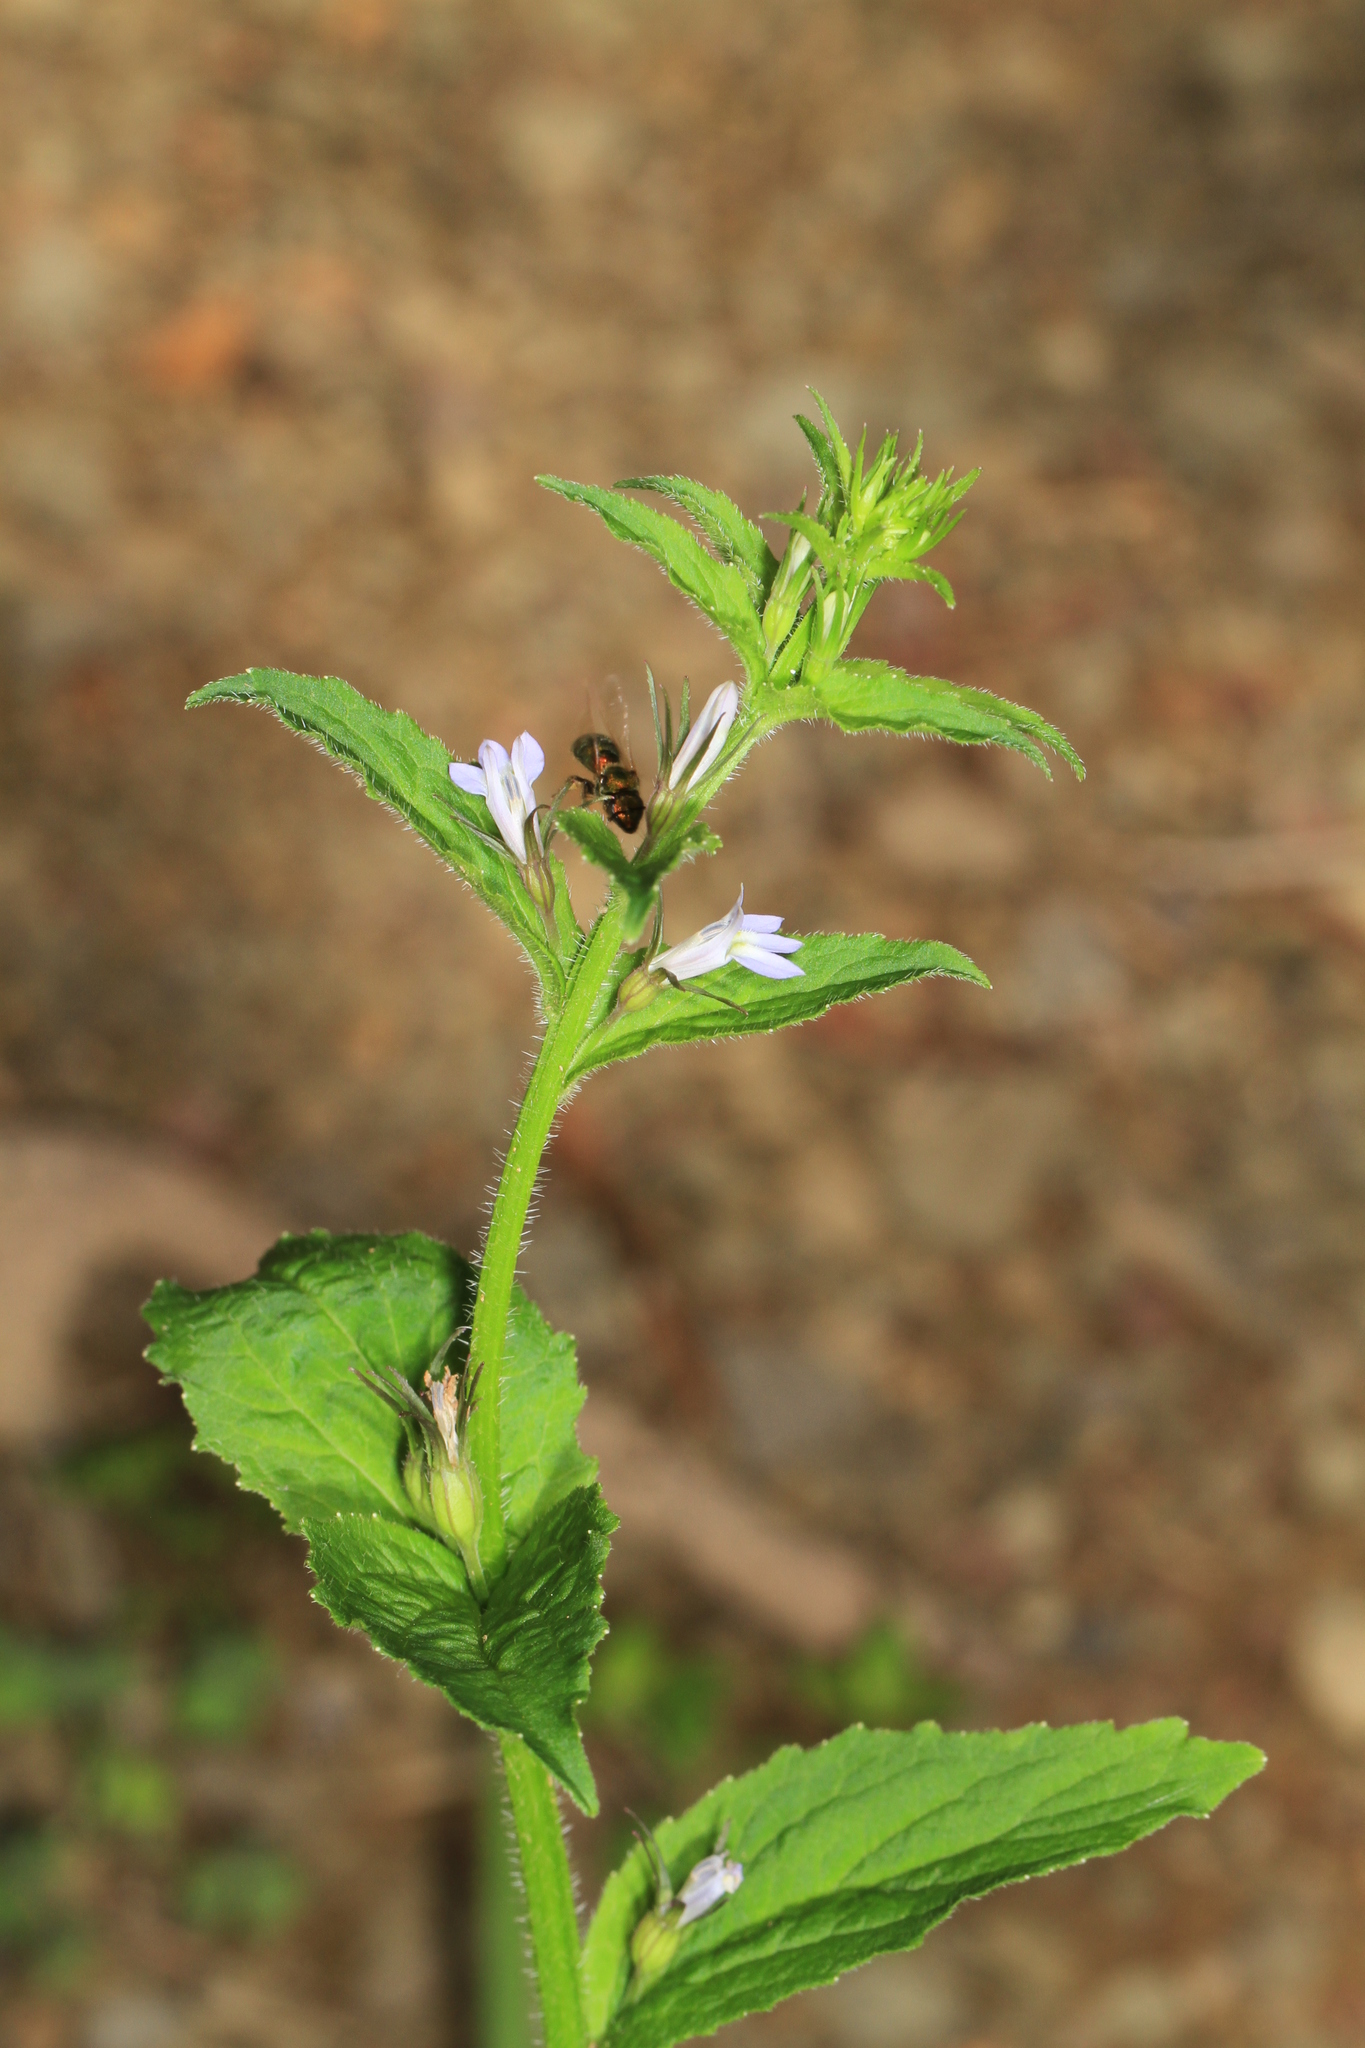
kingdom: Plantae
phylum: Tracheophyta
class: Magnoliopsida
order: Asterales
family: Campanulaceae
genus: Lobelia
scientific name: Lobelia inflata
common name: Indian tobacco
